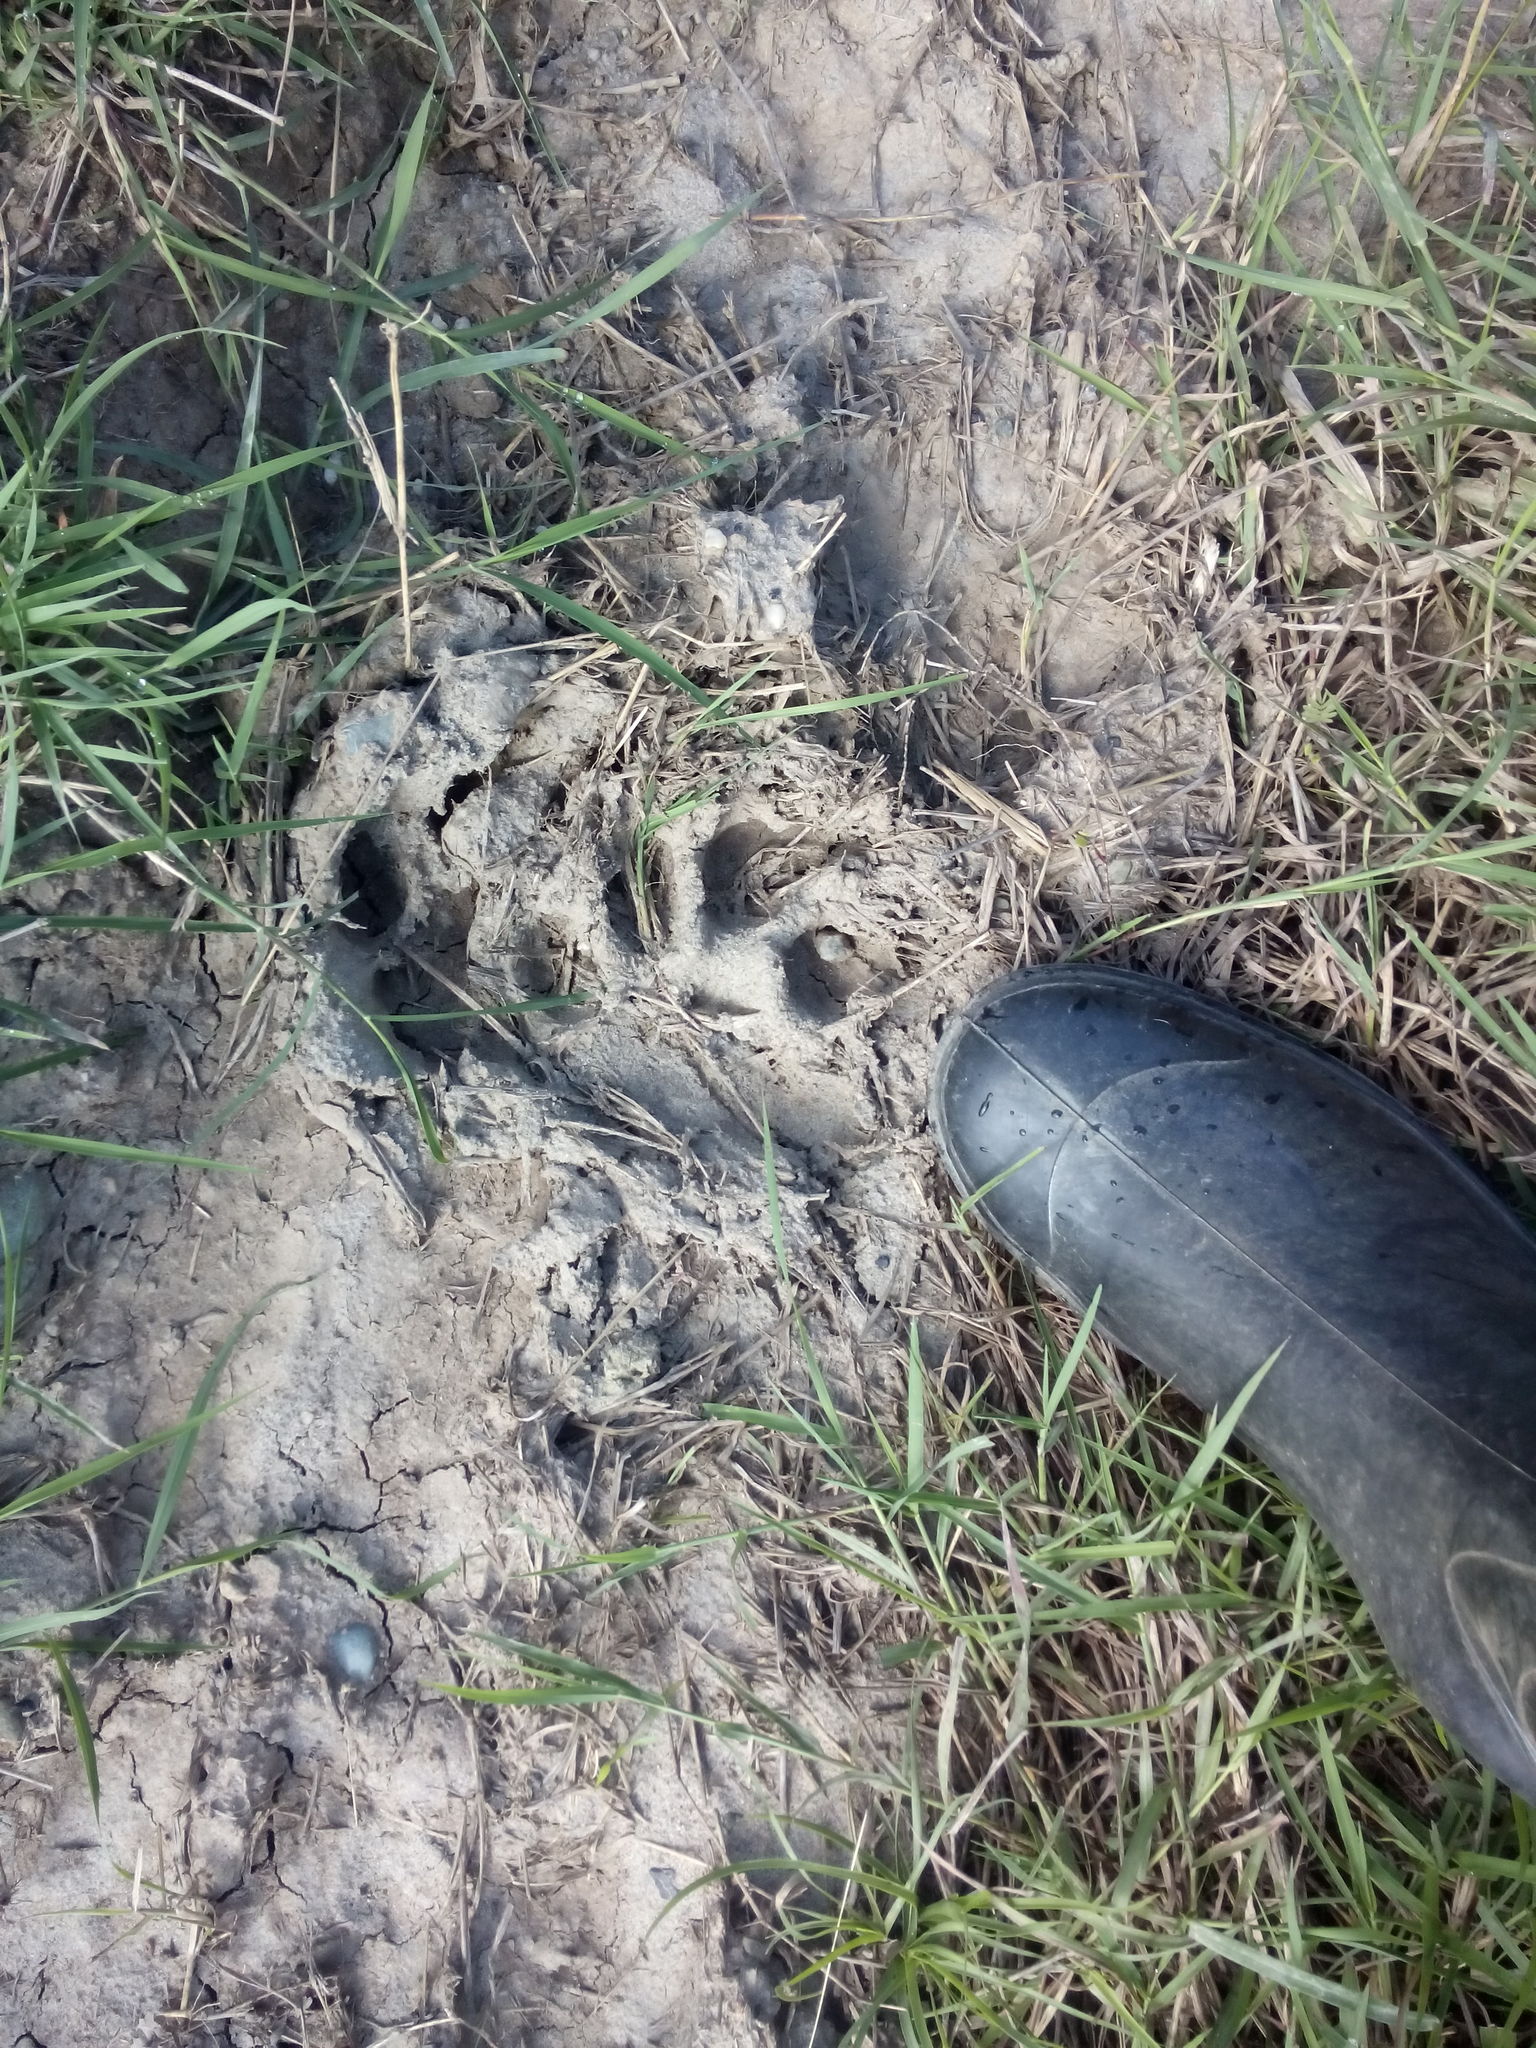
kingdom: Animalia
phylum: Chordata
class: Mammalia
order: Carnivora
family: Felidae
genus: Panthera
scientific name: Panthera onca
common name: Jaguar
